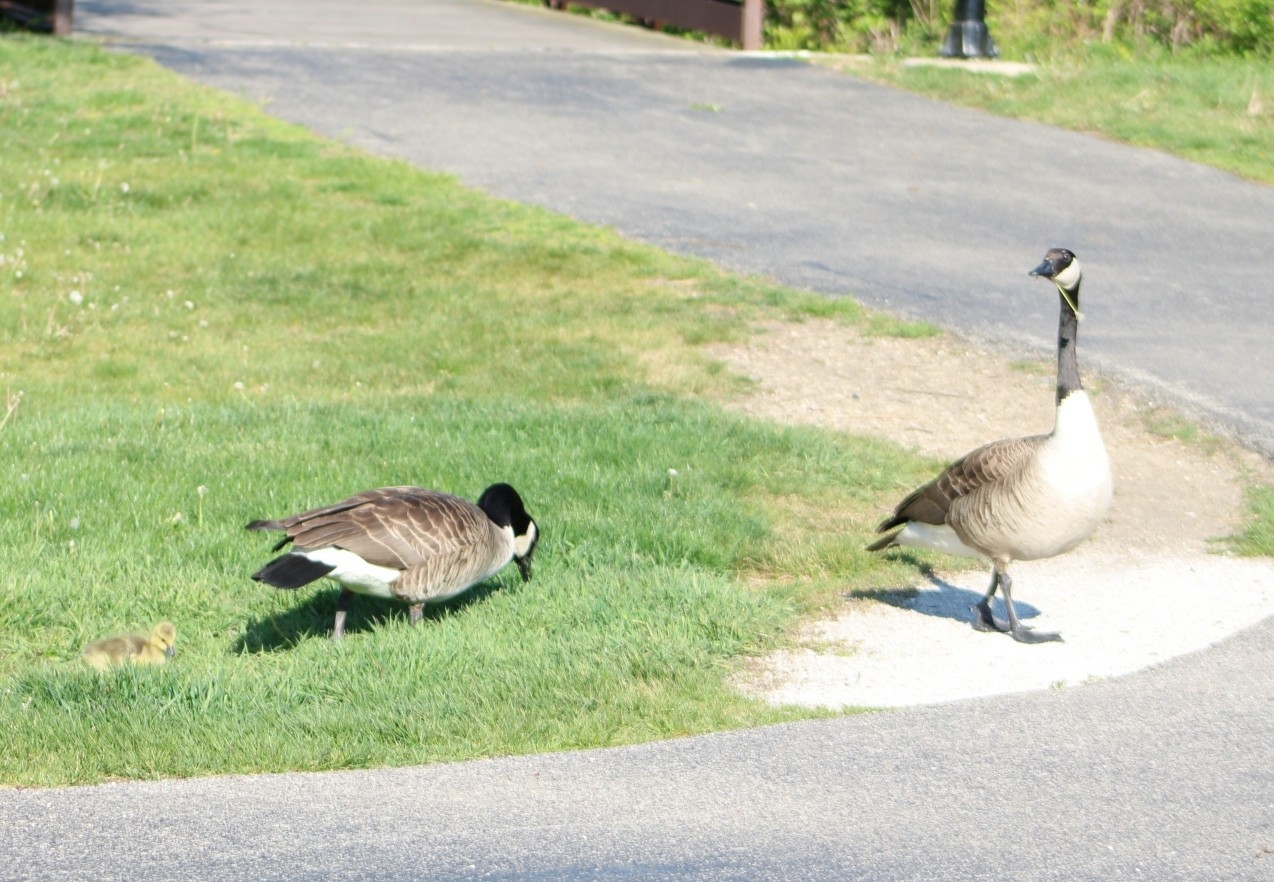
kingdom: Animalia
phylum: Chordata
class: Aves
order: Anseriformes
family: Anatidae
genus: Branta
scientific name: Branta canadensis
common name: Canada goose
